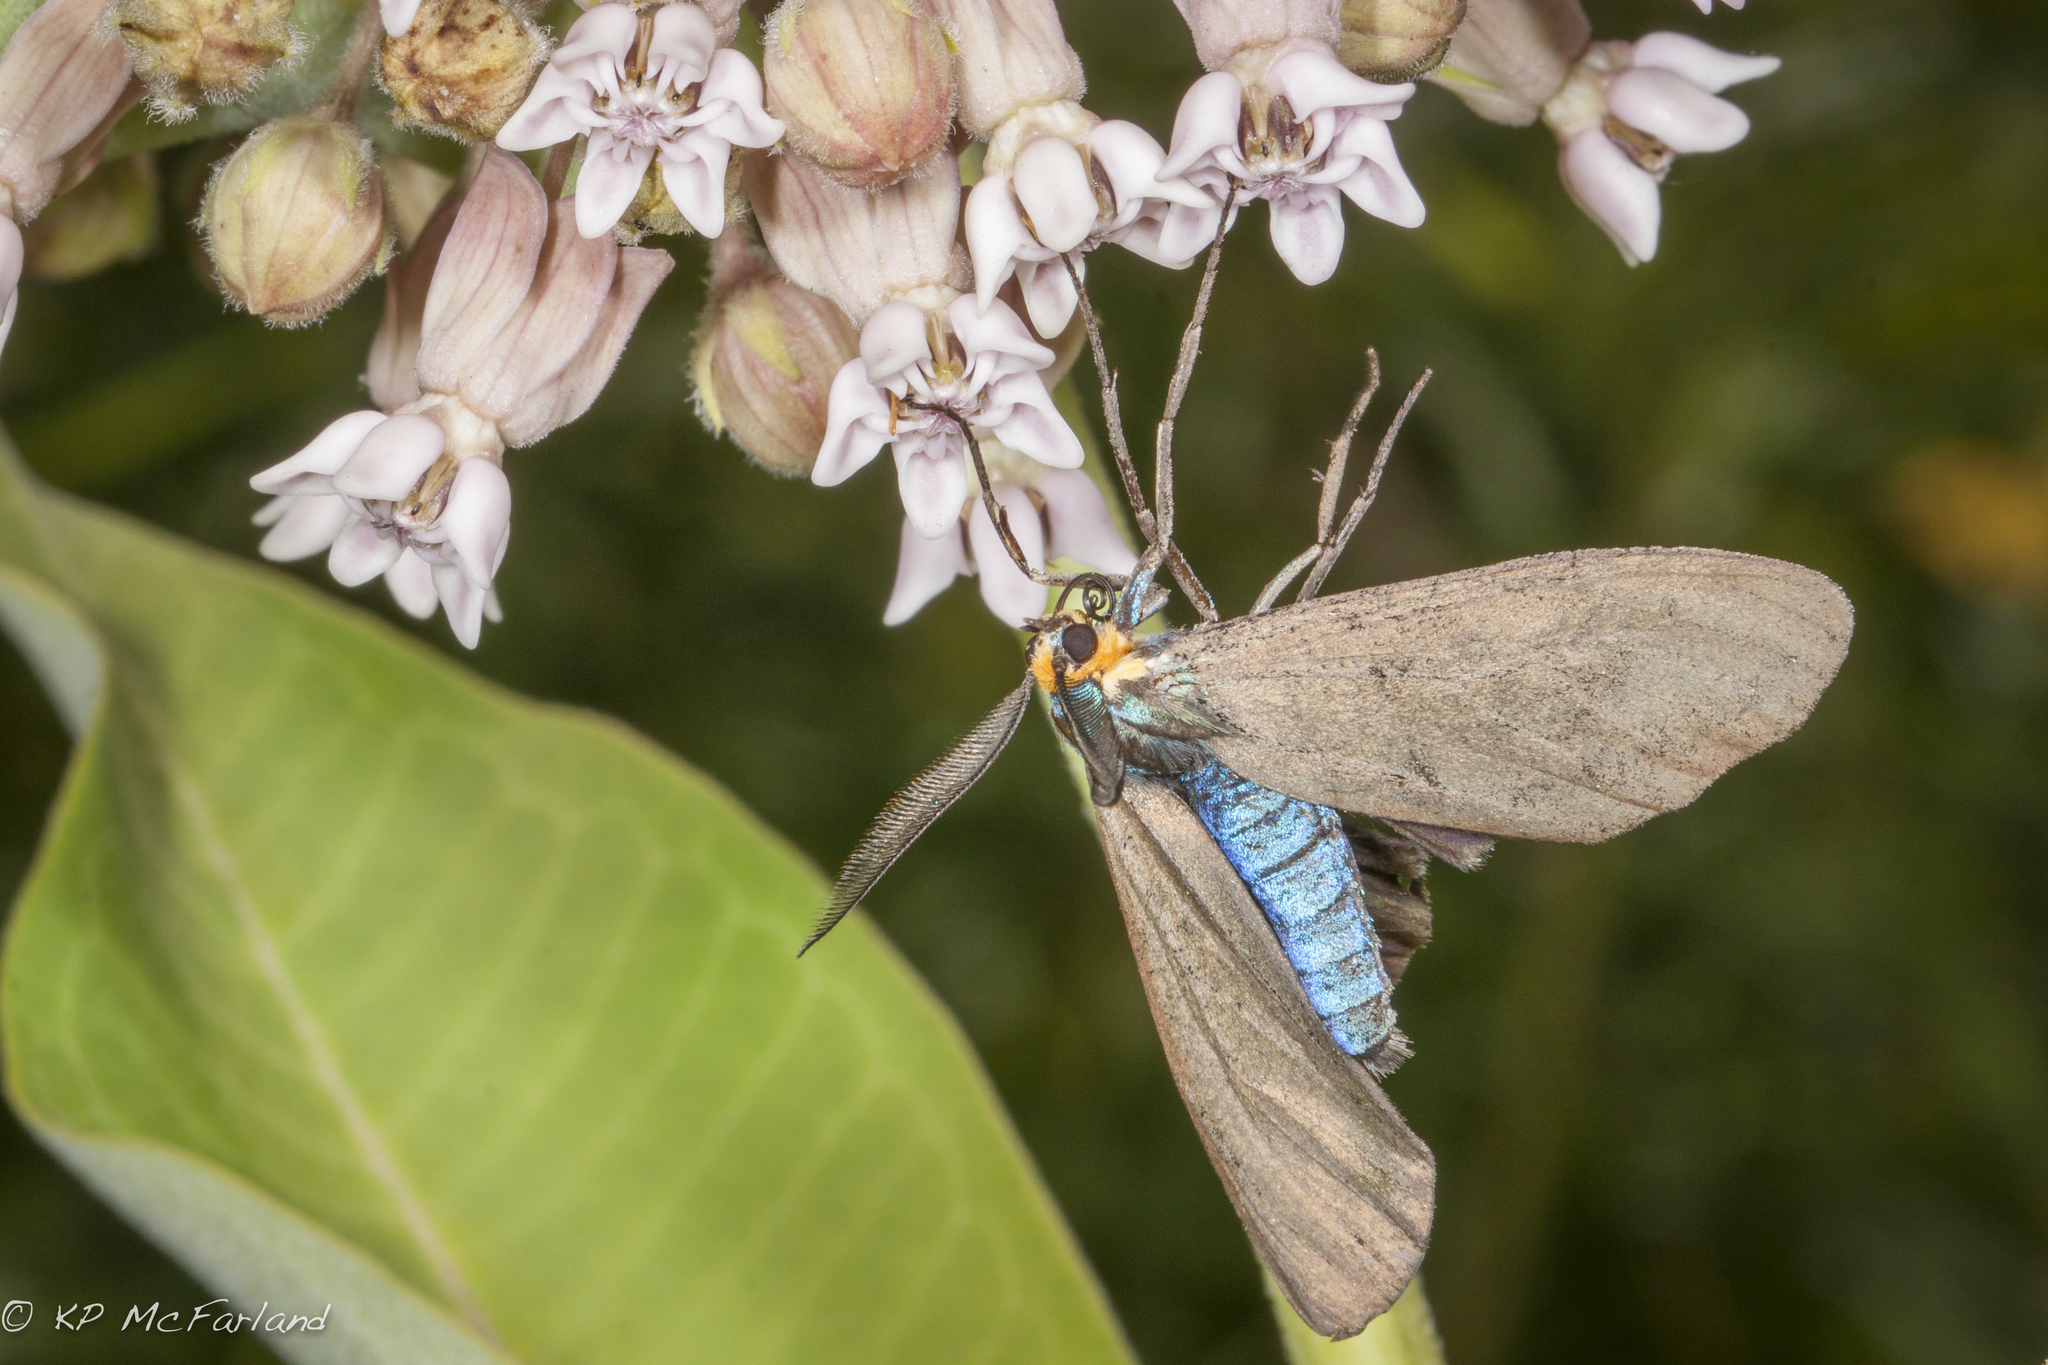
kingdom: Animalia
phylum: Arthropoda
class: Insecta
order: Lepidoptera
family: Erebidae
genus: Ctenucha
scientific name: Ctenucha virginica
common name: Virginia ctenucha moth
